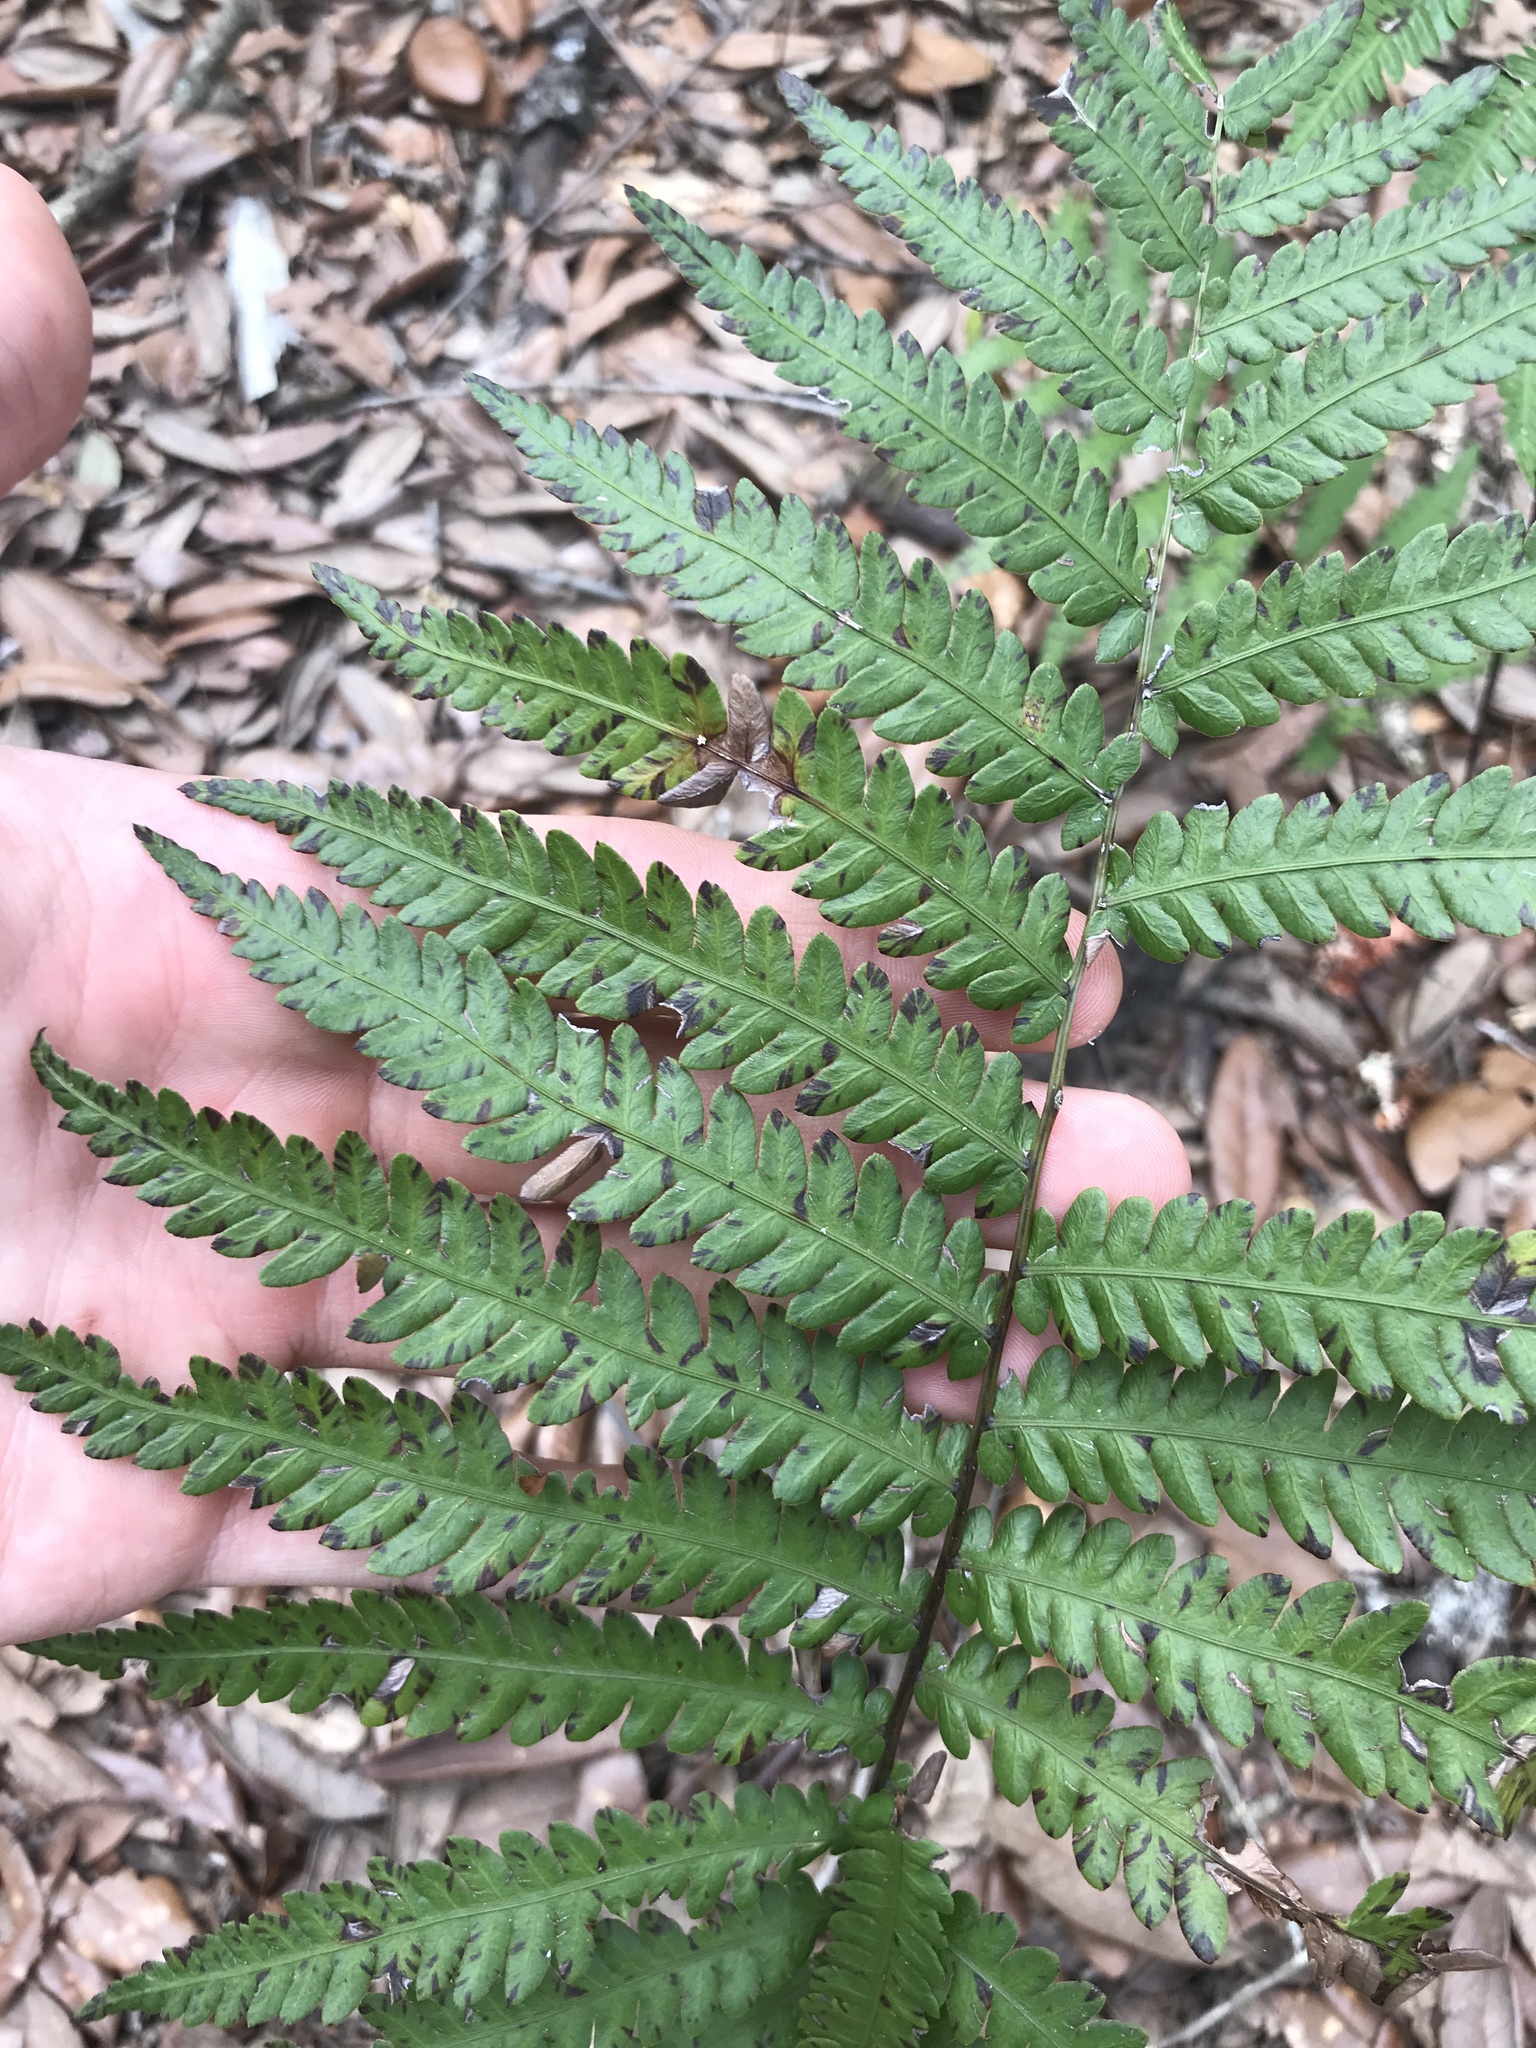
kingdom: Plantae
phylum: Tracheophyta
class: Polypodiopsida
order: Polypodiales
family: Blechnaceae
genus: Anchistea
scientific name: Anchistea virginica
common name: Virginia chain fern
